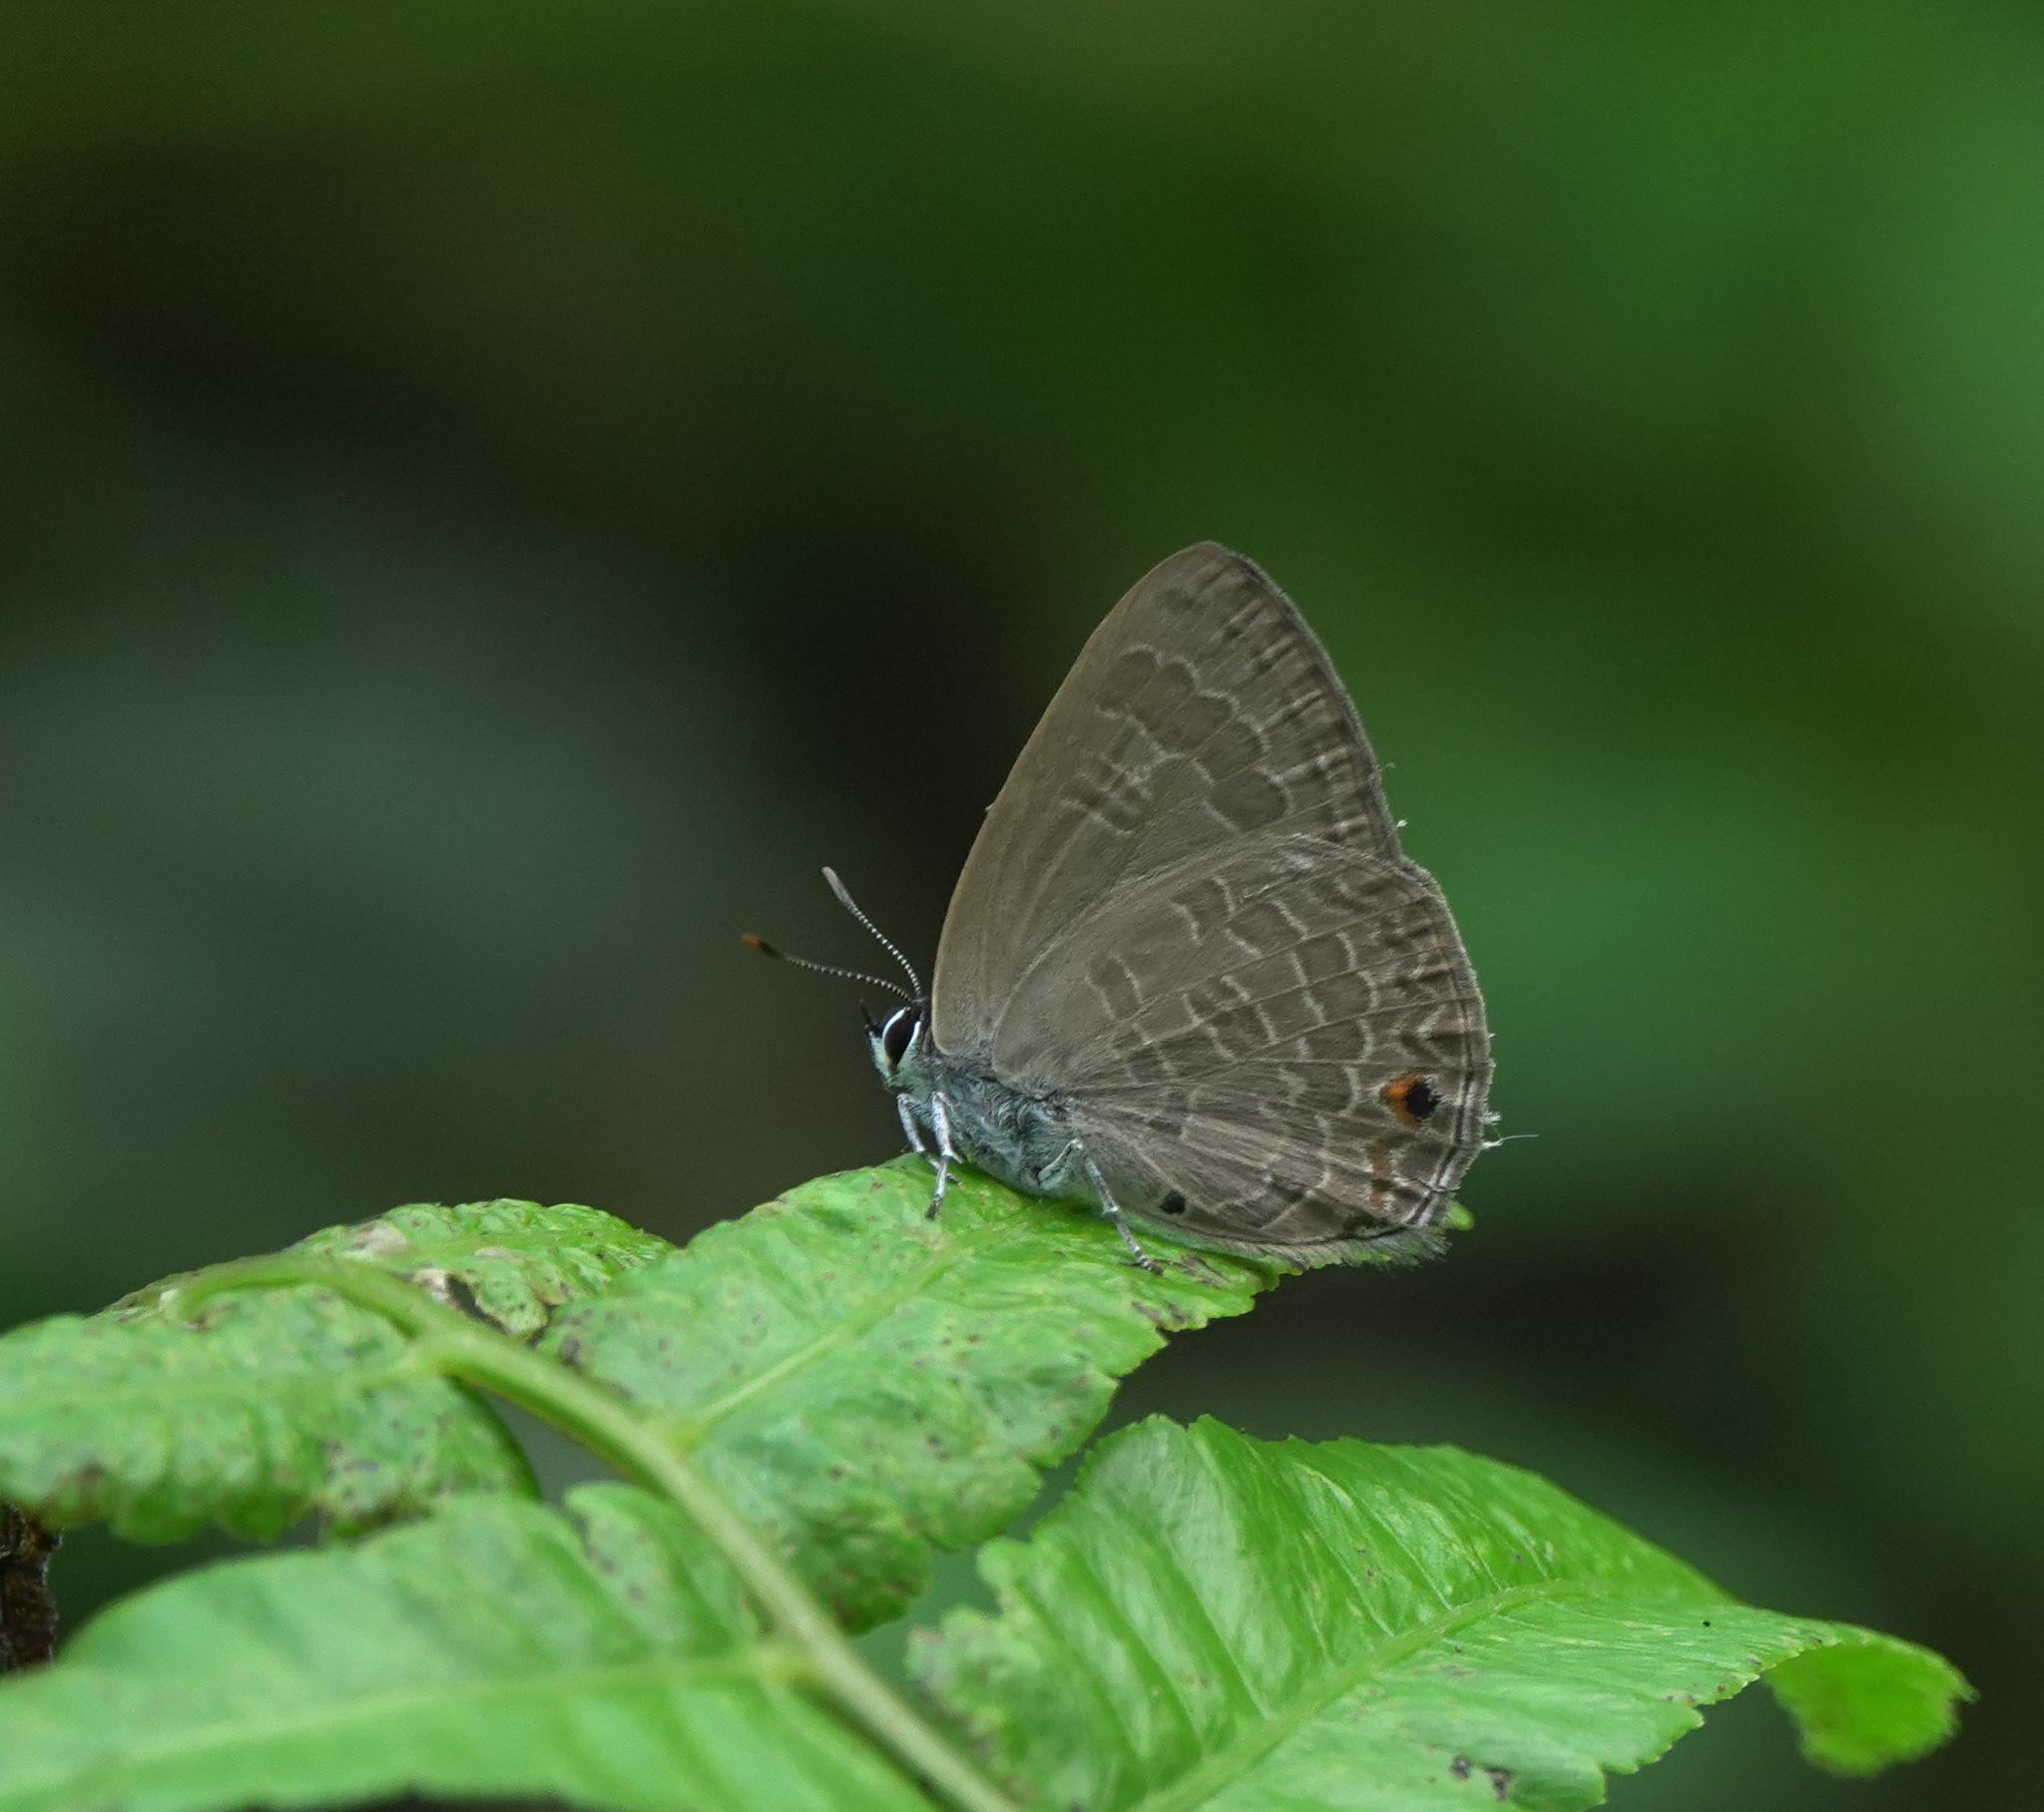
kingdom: Animalia
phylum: Arthropoda
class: Insecta
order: Lepidoptera
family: Lycaenidae
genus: Anthene
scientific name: Anthene emolus
